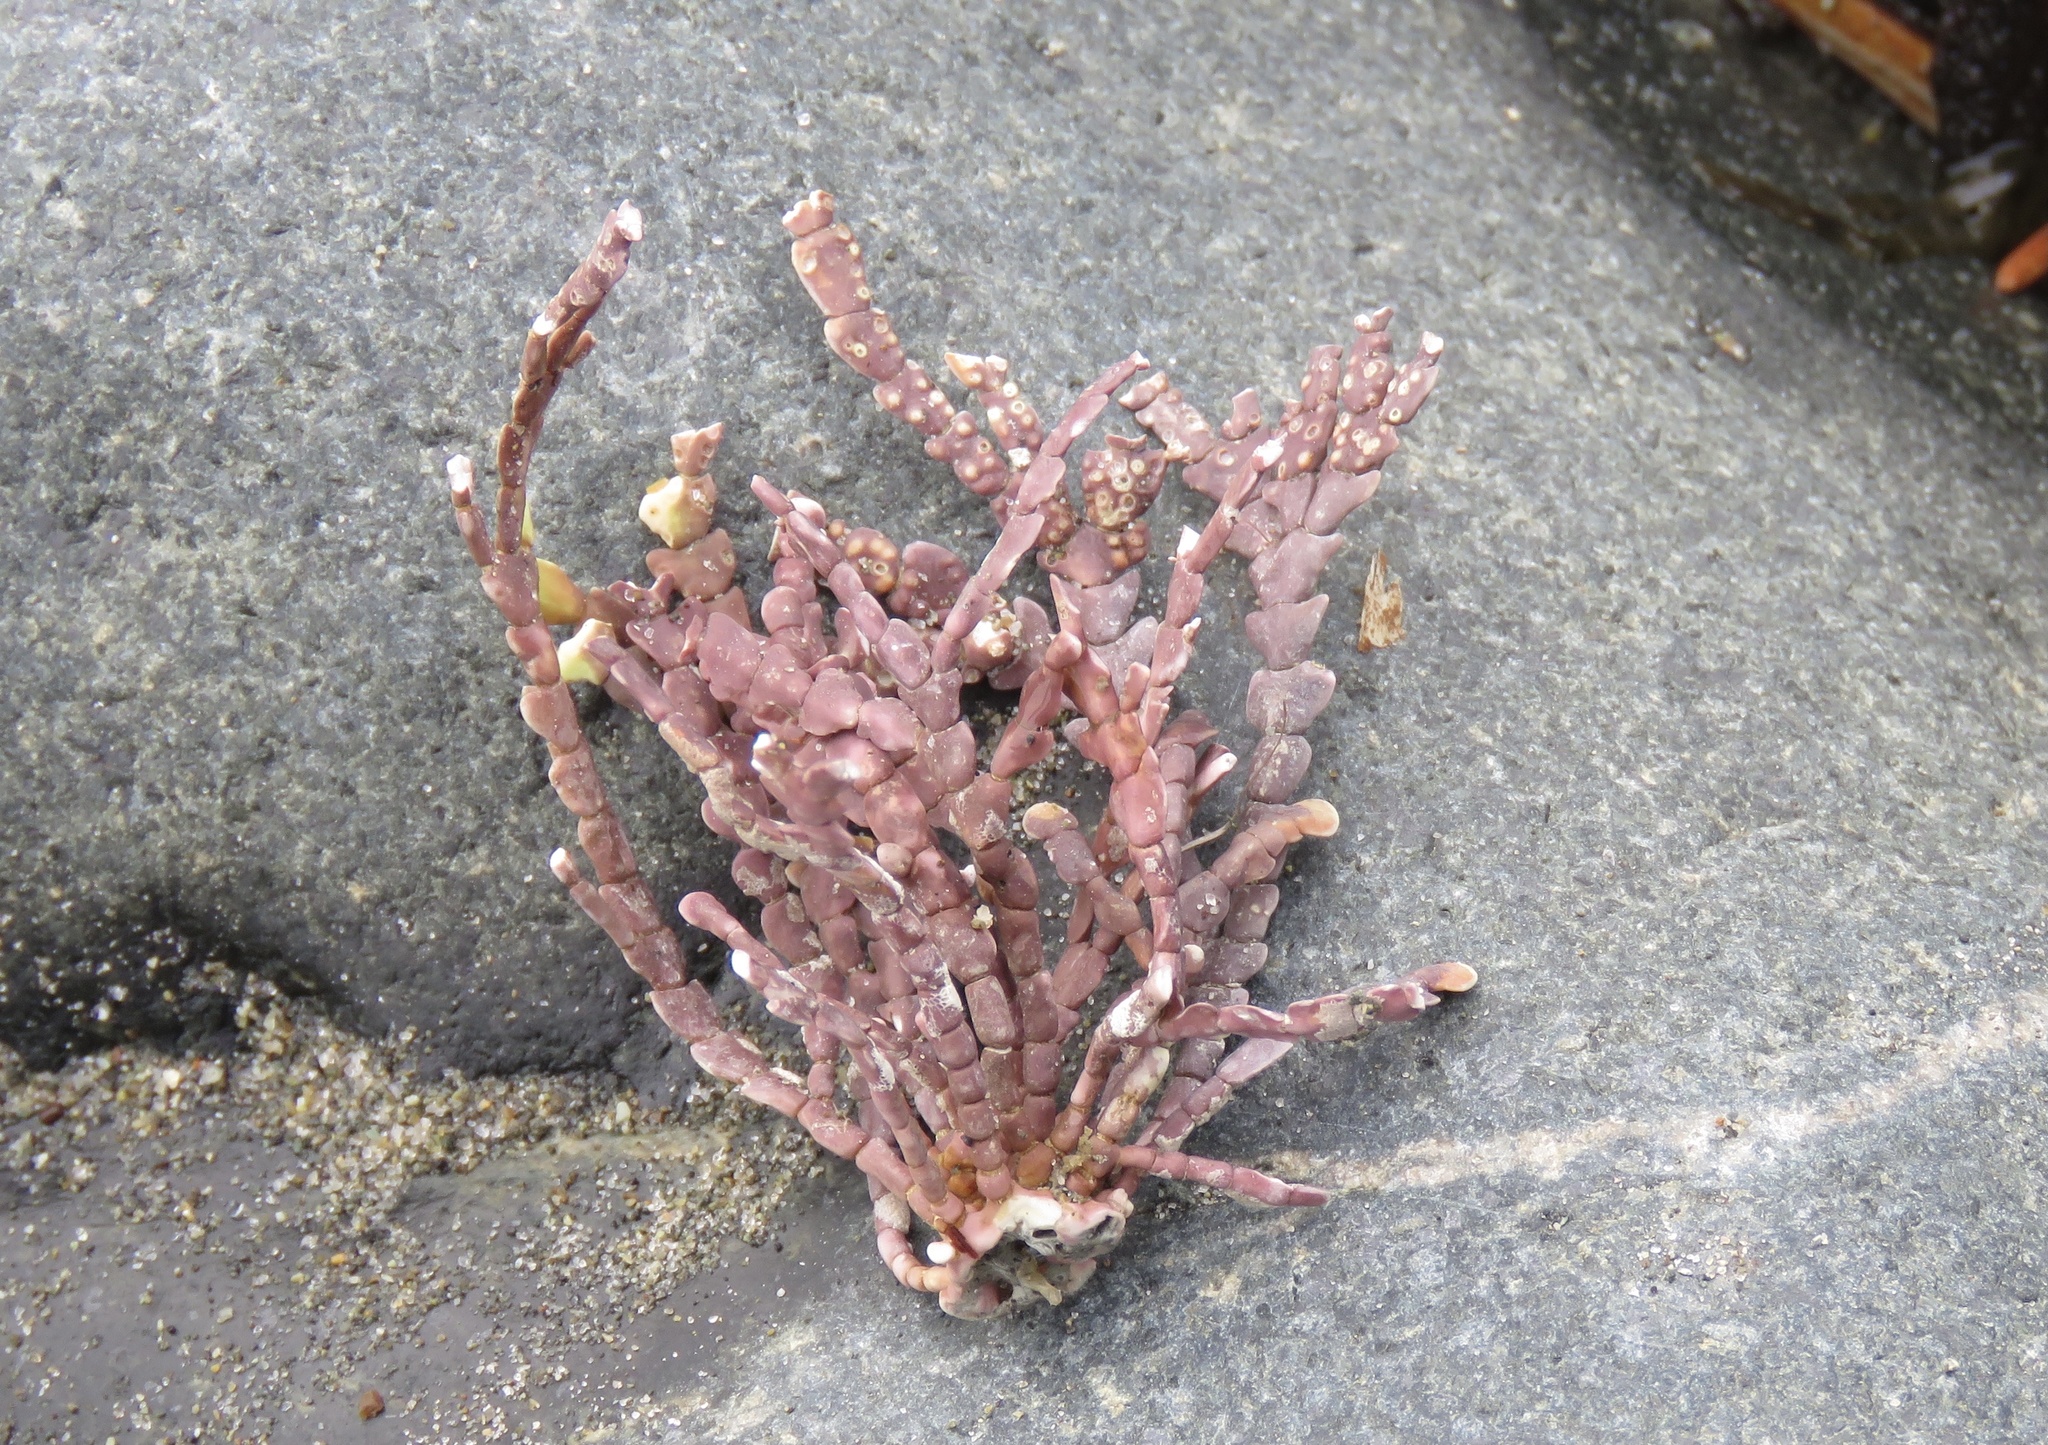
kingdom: Plantae
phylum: Rhodophyta
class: Florideophyceae
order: Corallinales
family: Corallinaceae
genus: Calliarthron
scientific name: Calliarthron cheilosporioides
